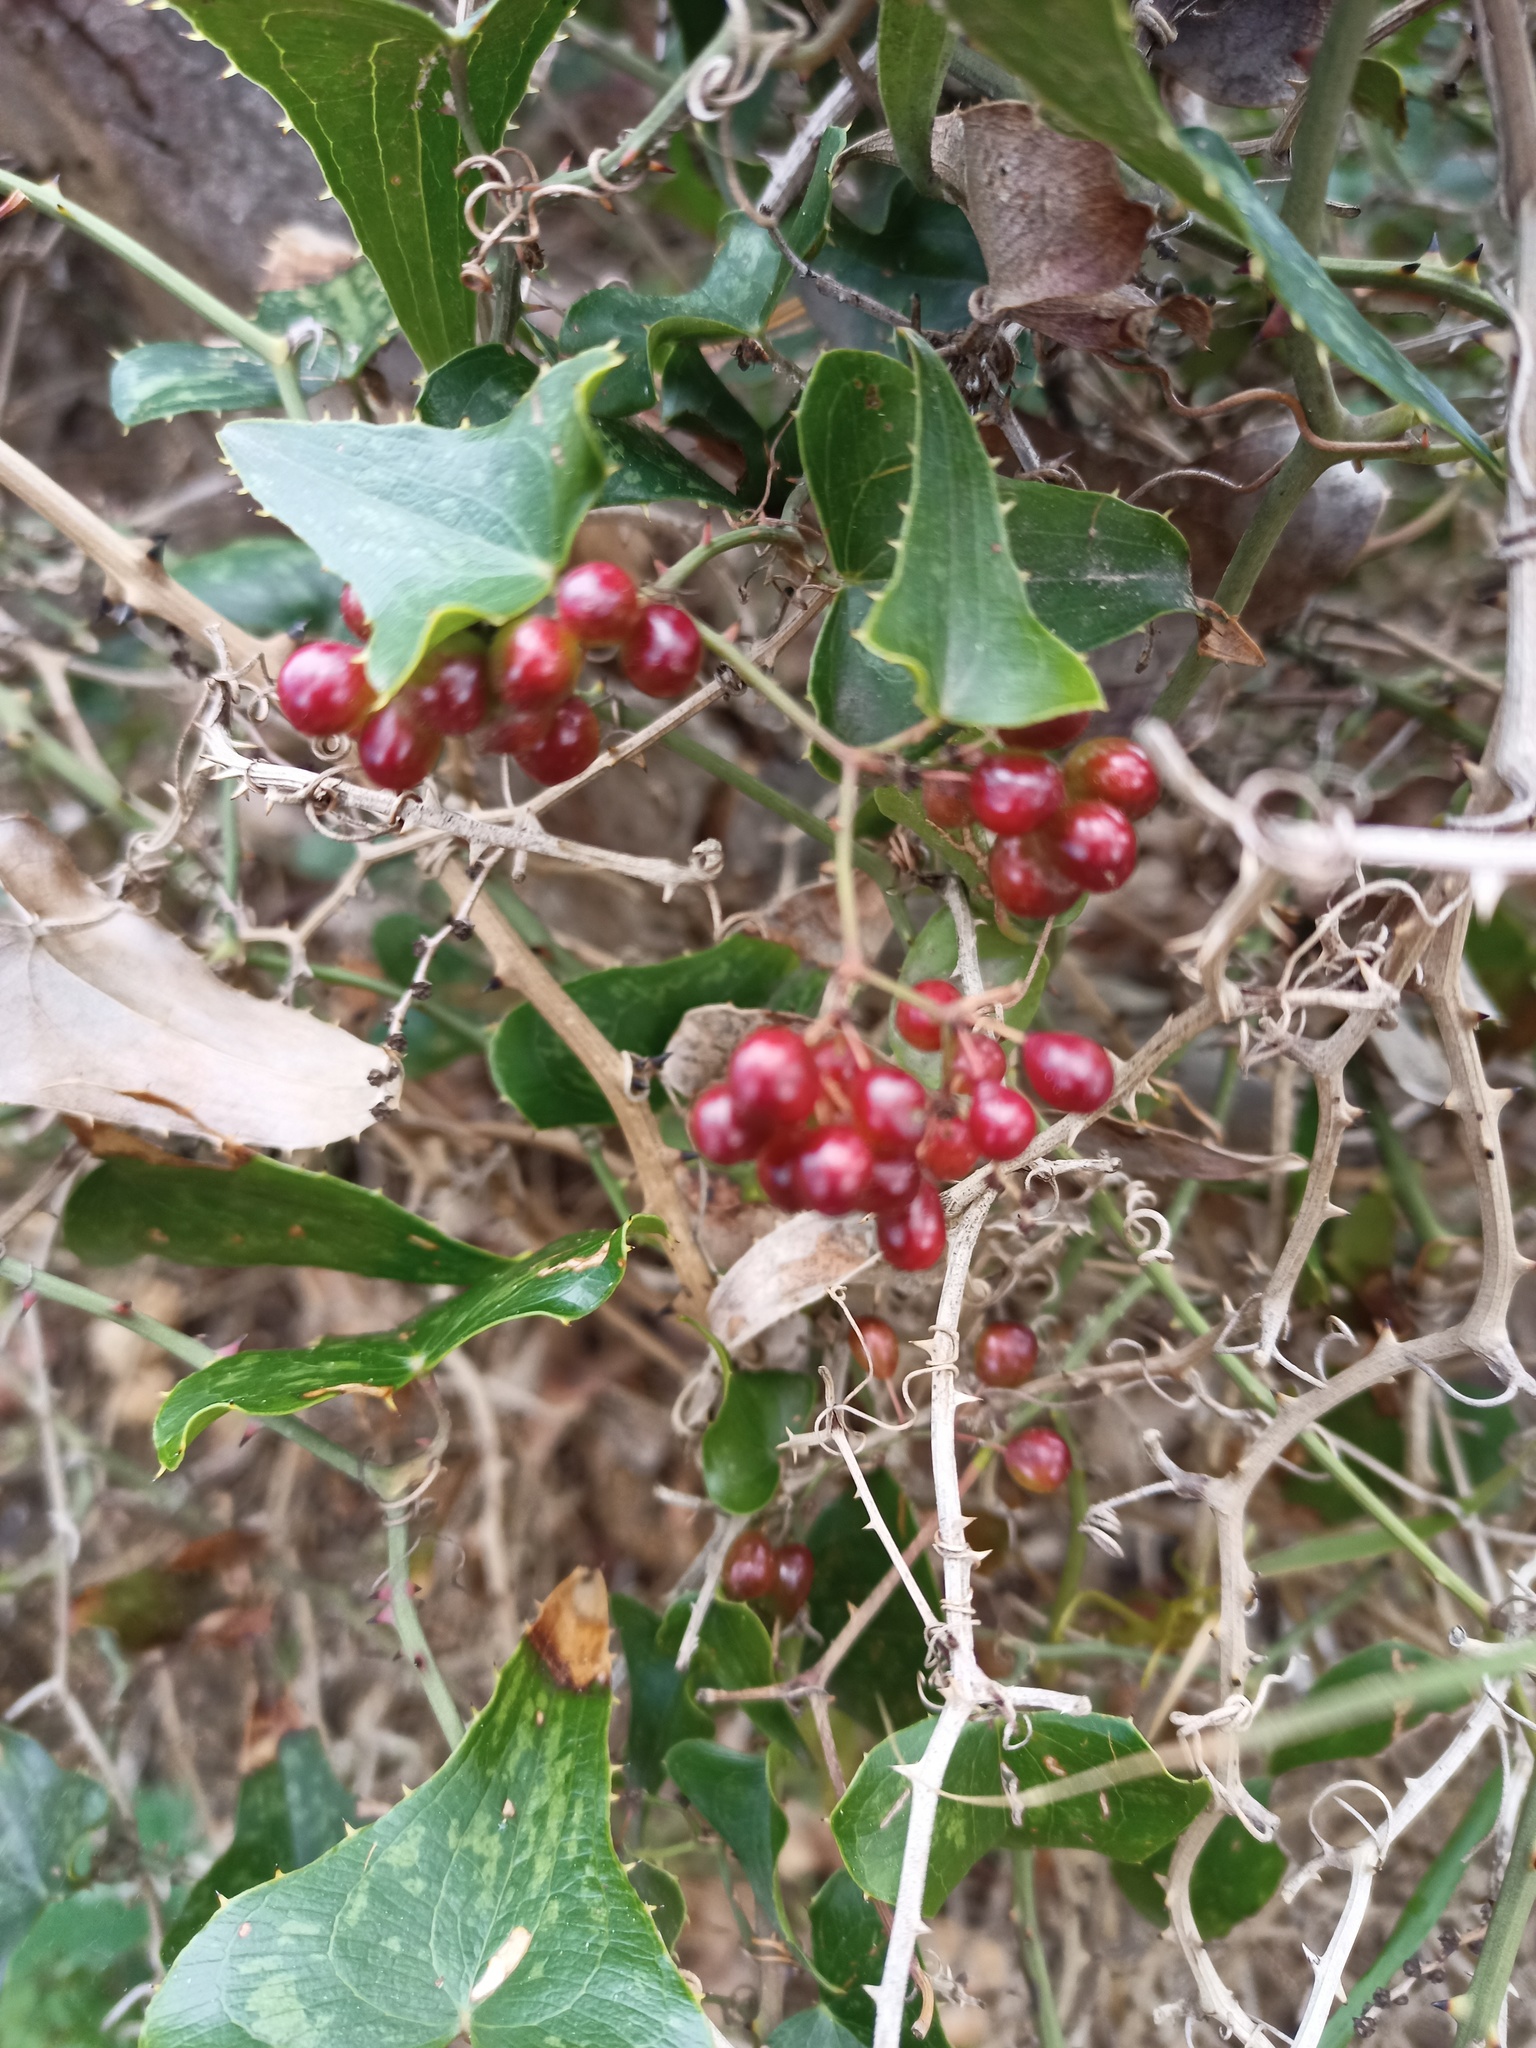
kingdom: Plantae
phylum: Tracheophyta
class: Liliopsida
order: Liliales
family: Smilacaceae
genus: Smilax
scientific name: Smilax aspera
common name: Common smilax
